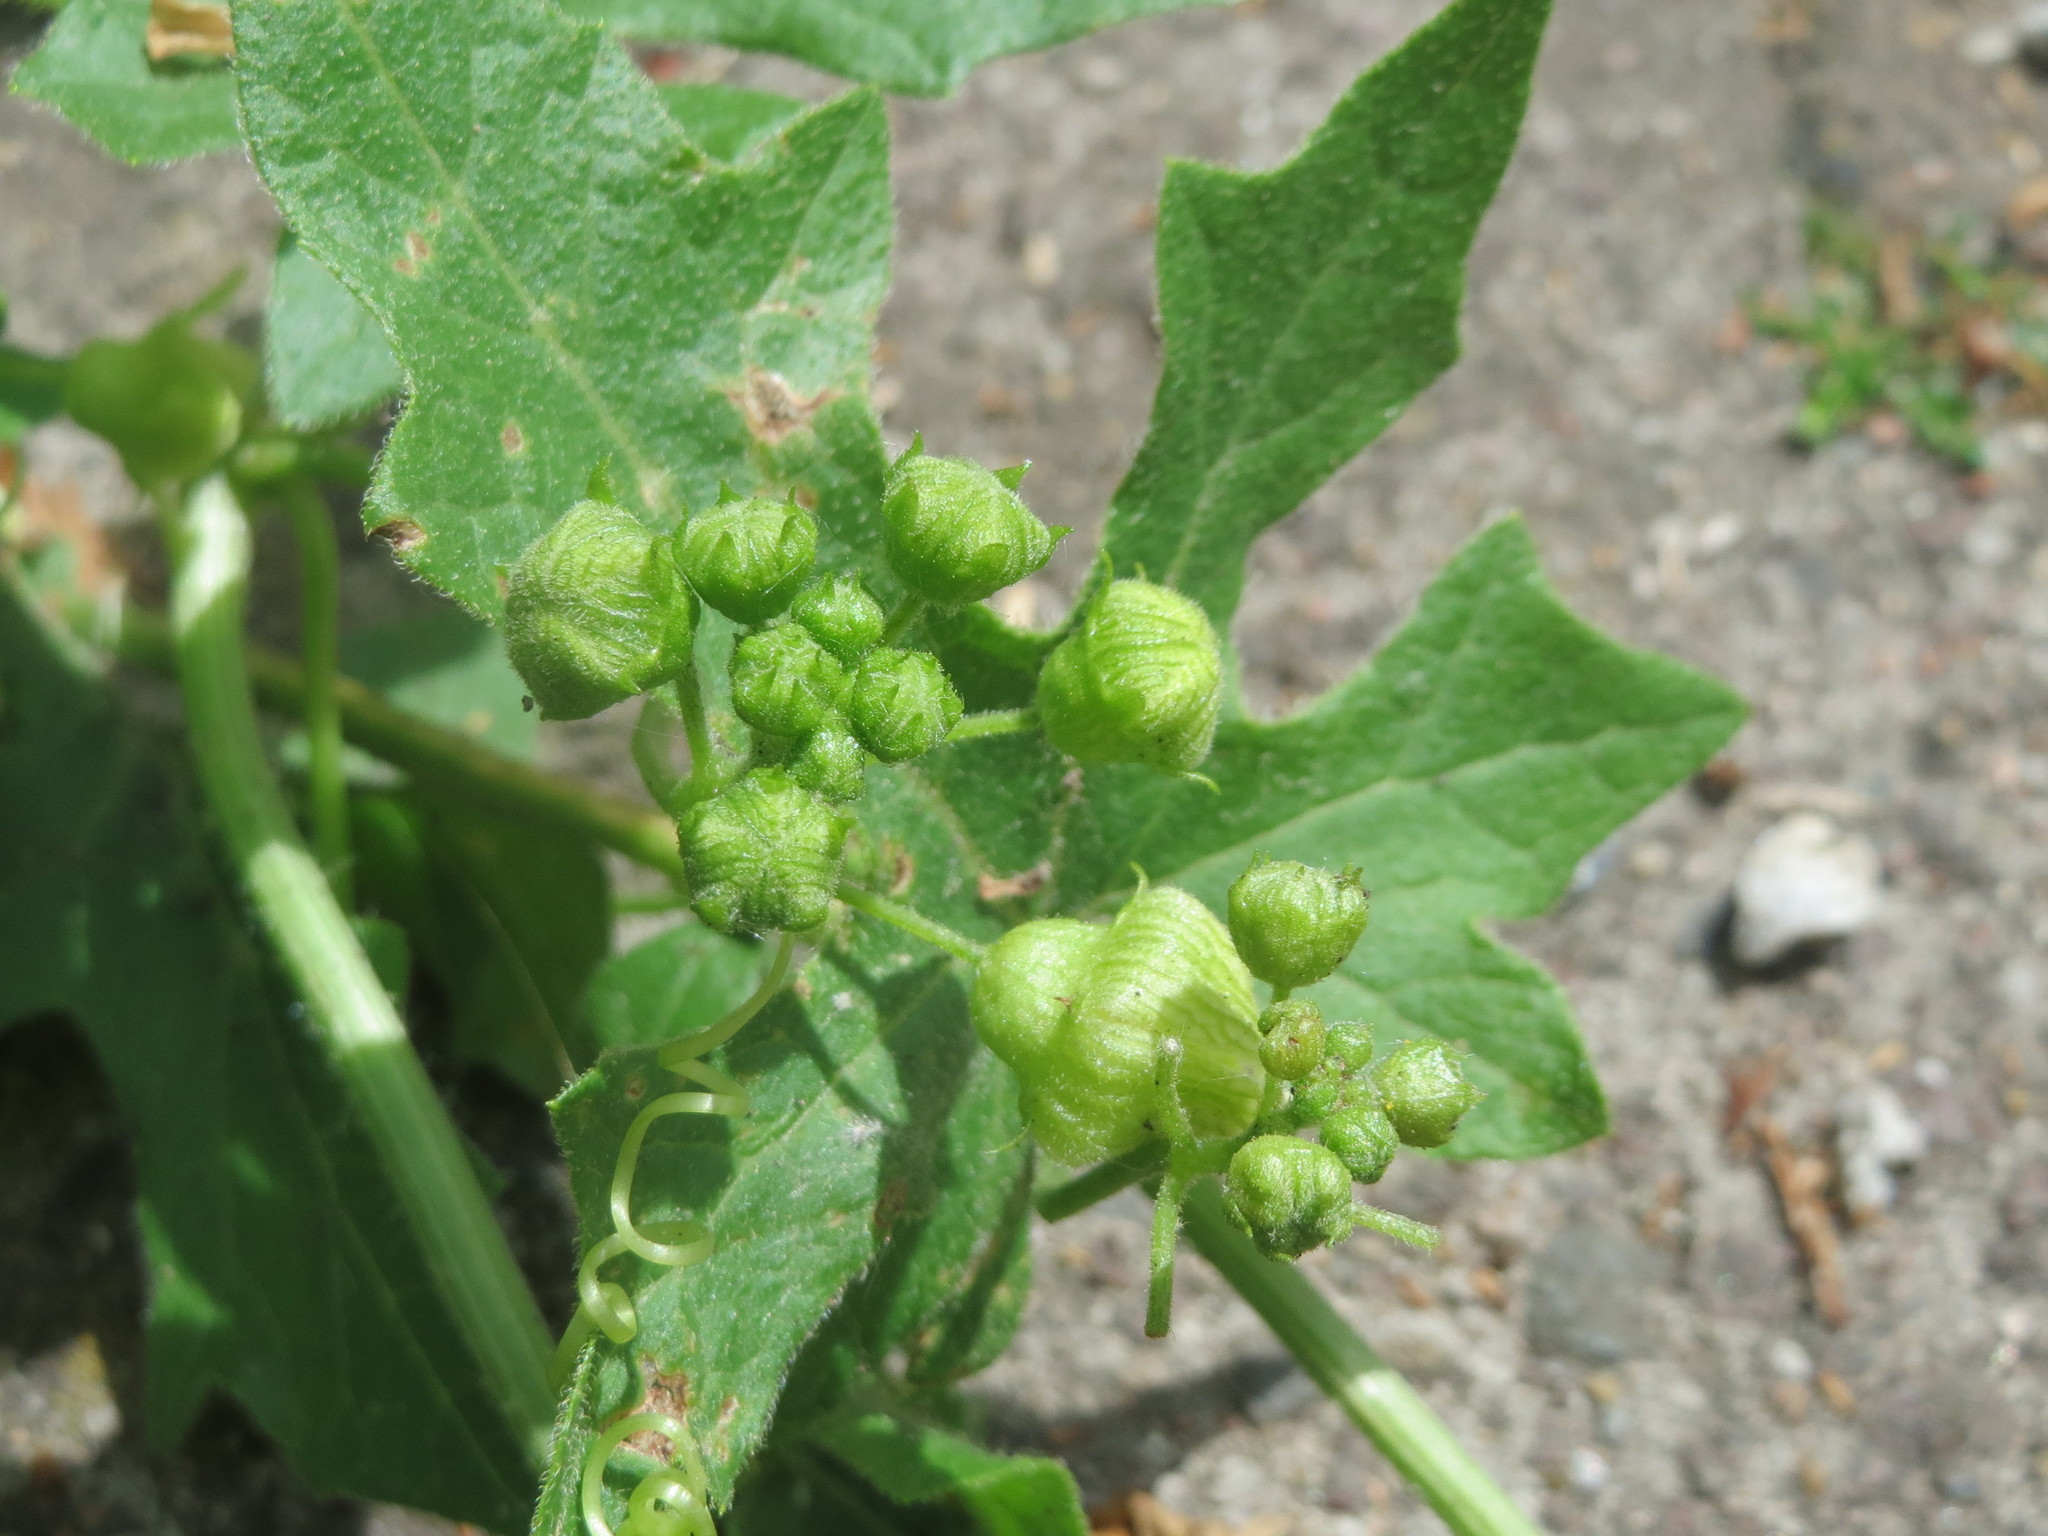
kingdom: Plantae
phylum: Tracheophyta
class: Magnoliopsida
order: Cucurbitales
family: Cucurbitaceae
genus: Bryonia
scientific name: Bryonia dioica
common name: White bryony
